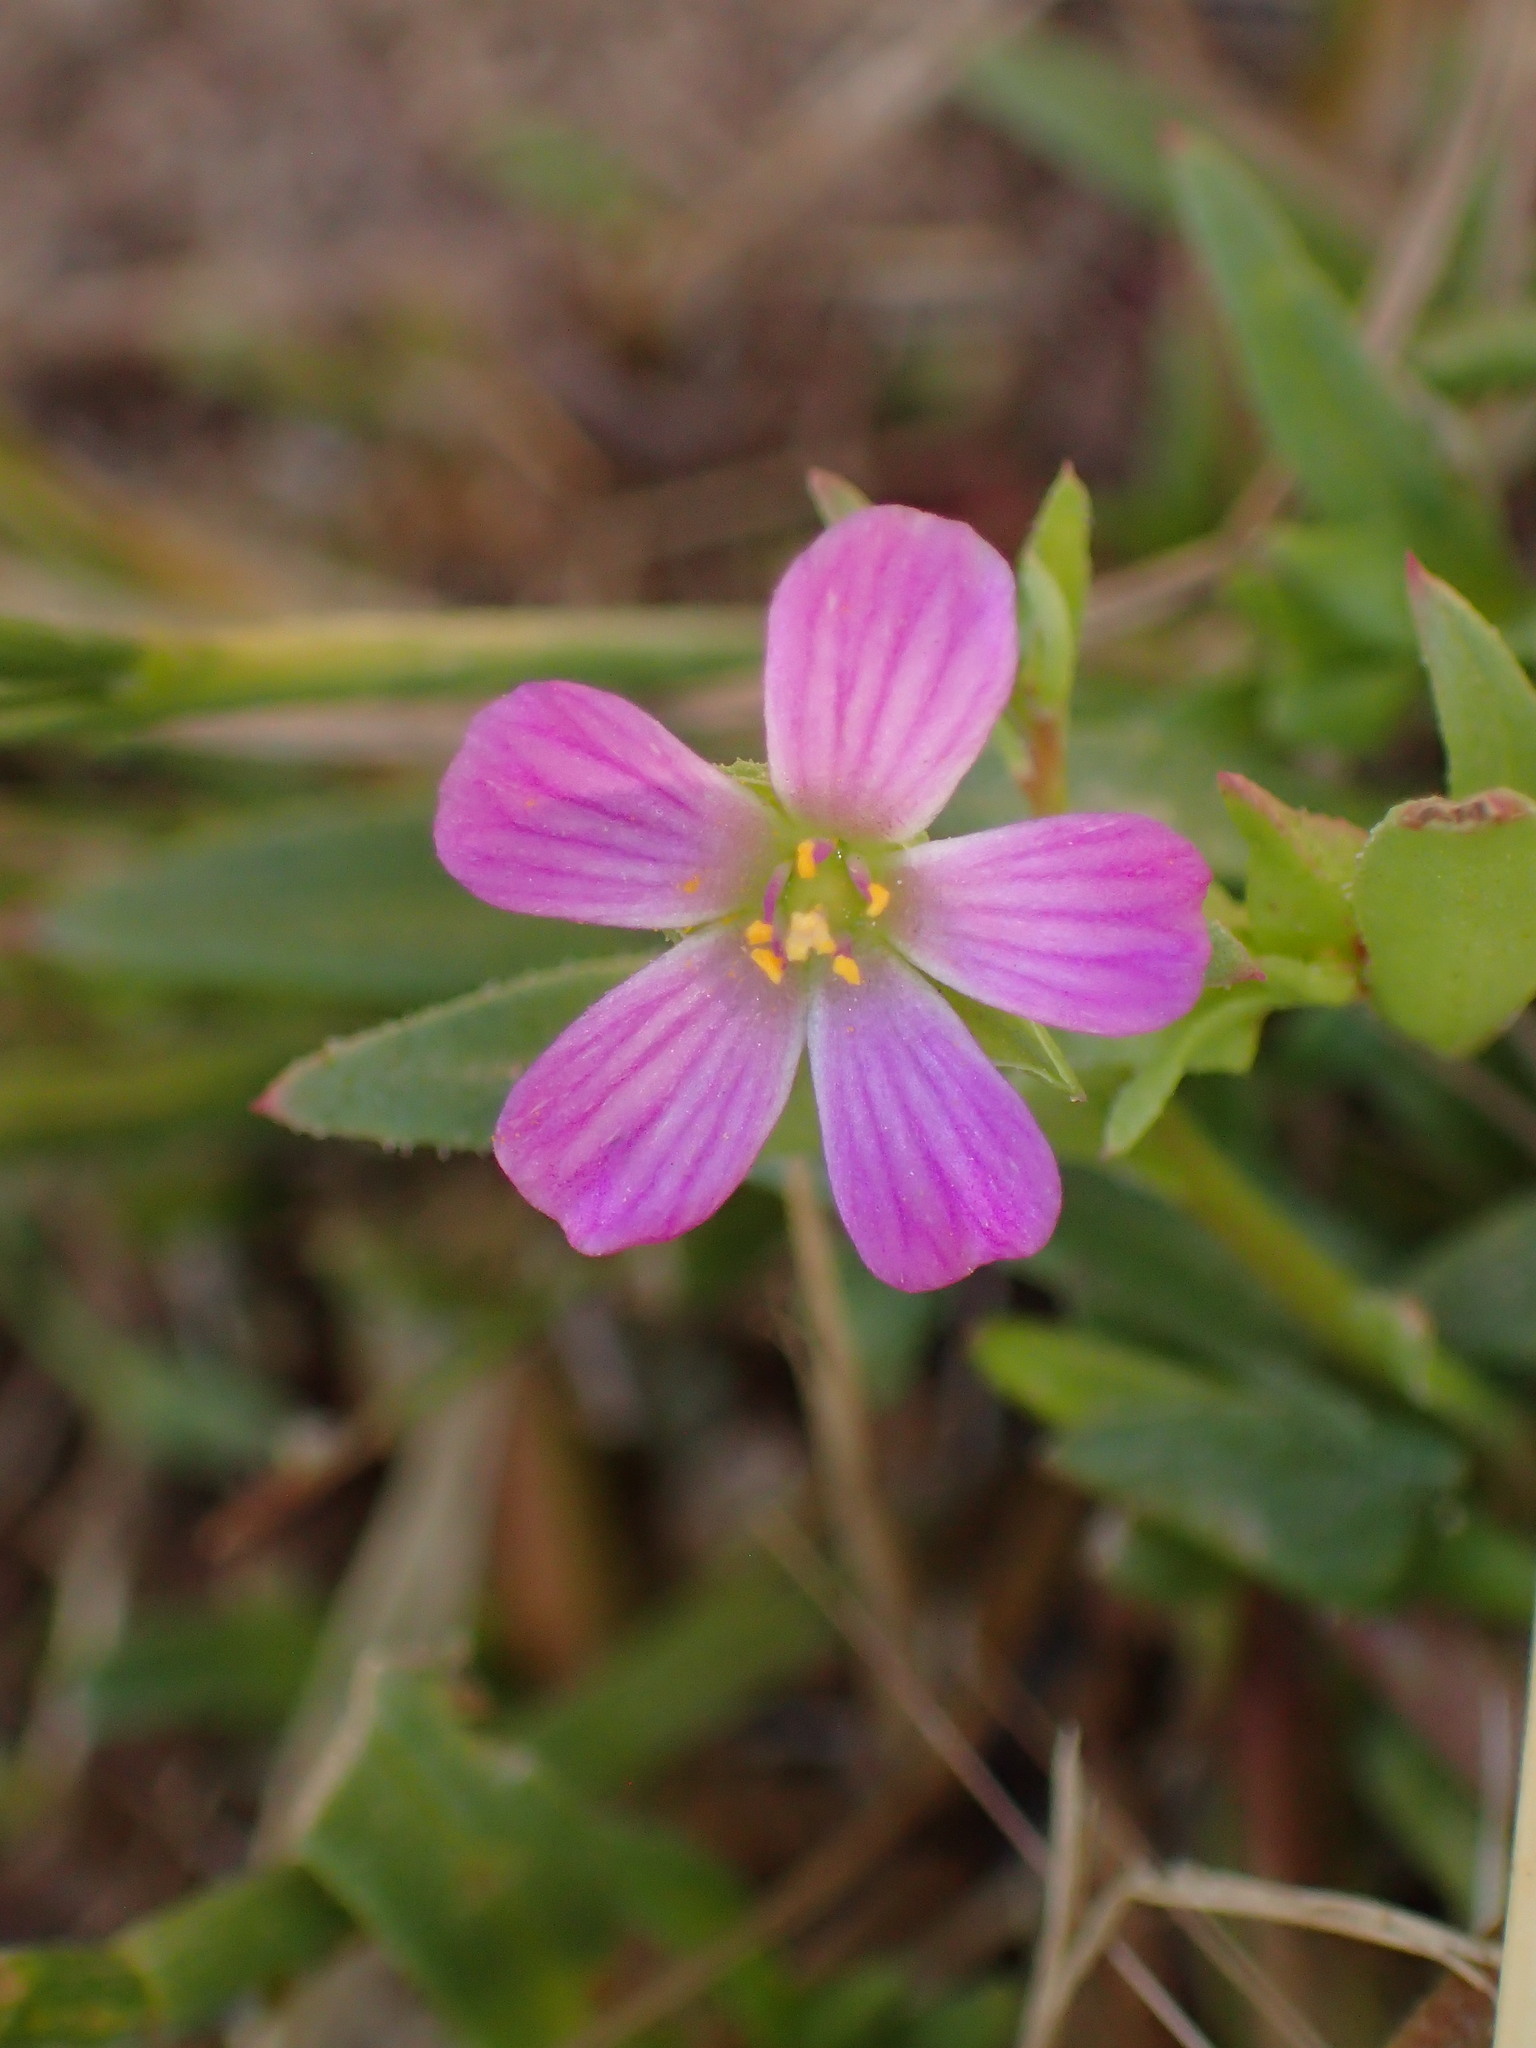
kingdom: Plantae
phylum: Tracheophyta
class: Magnoliopsida
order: Caryophyllales
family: Montiaceae
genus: Calandrinia
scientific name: Calandrinia menziesii
